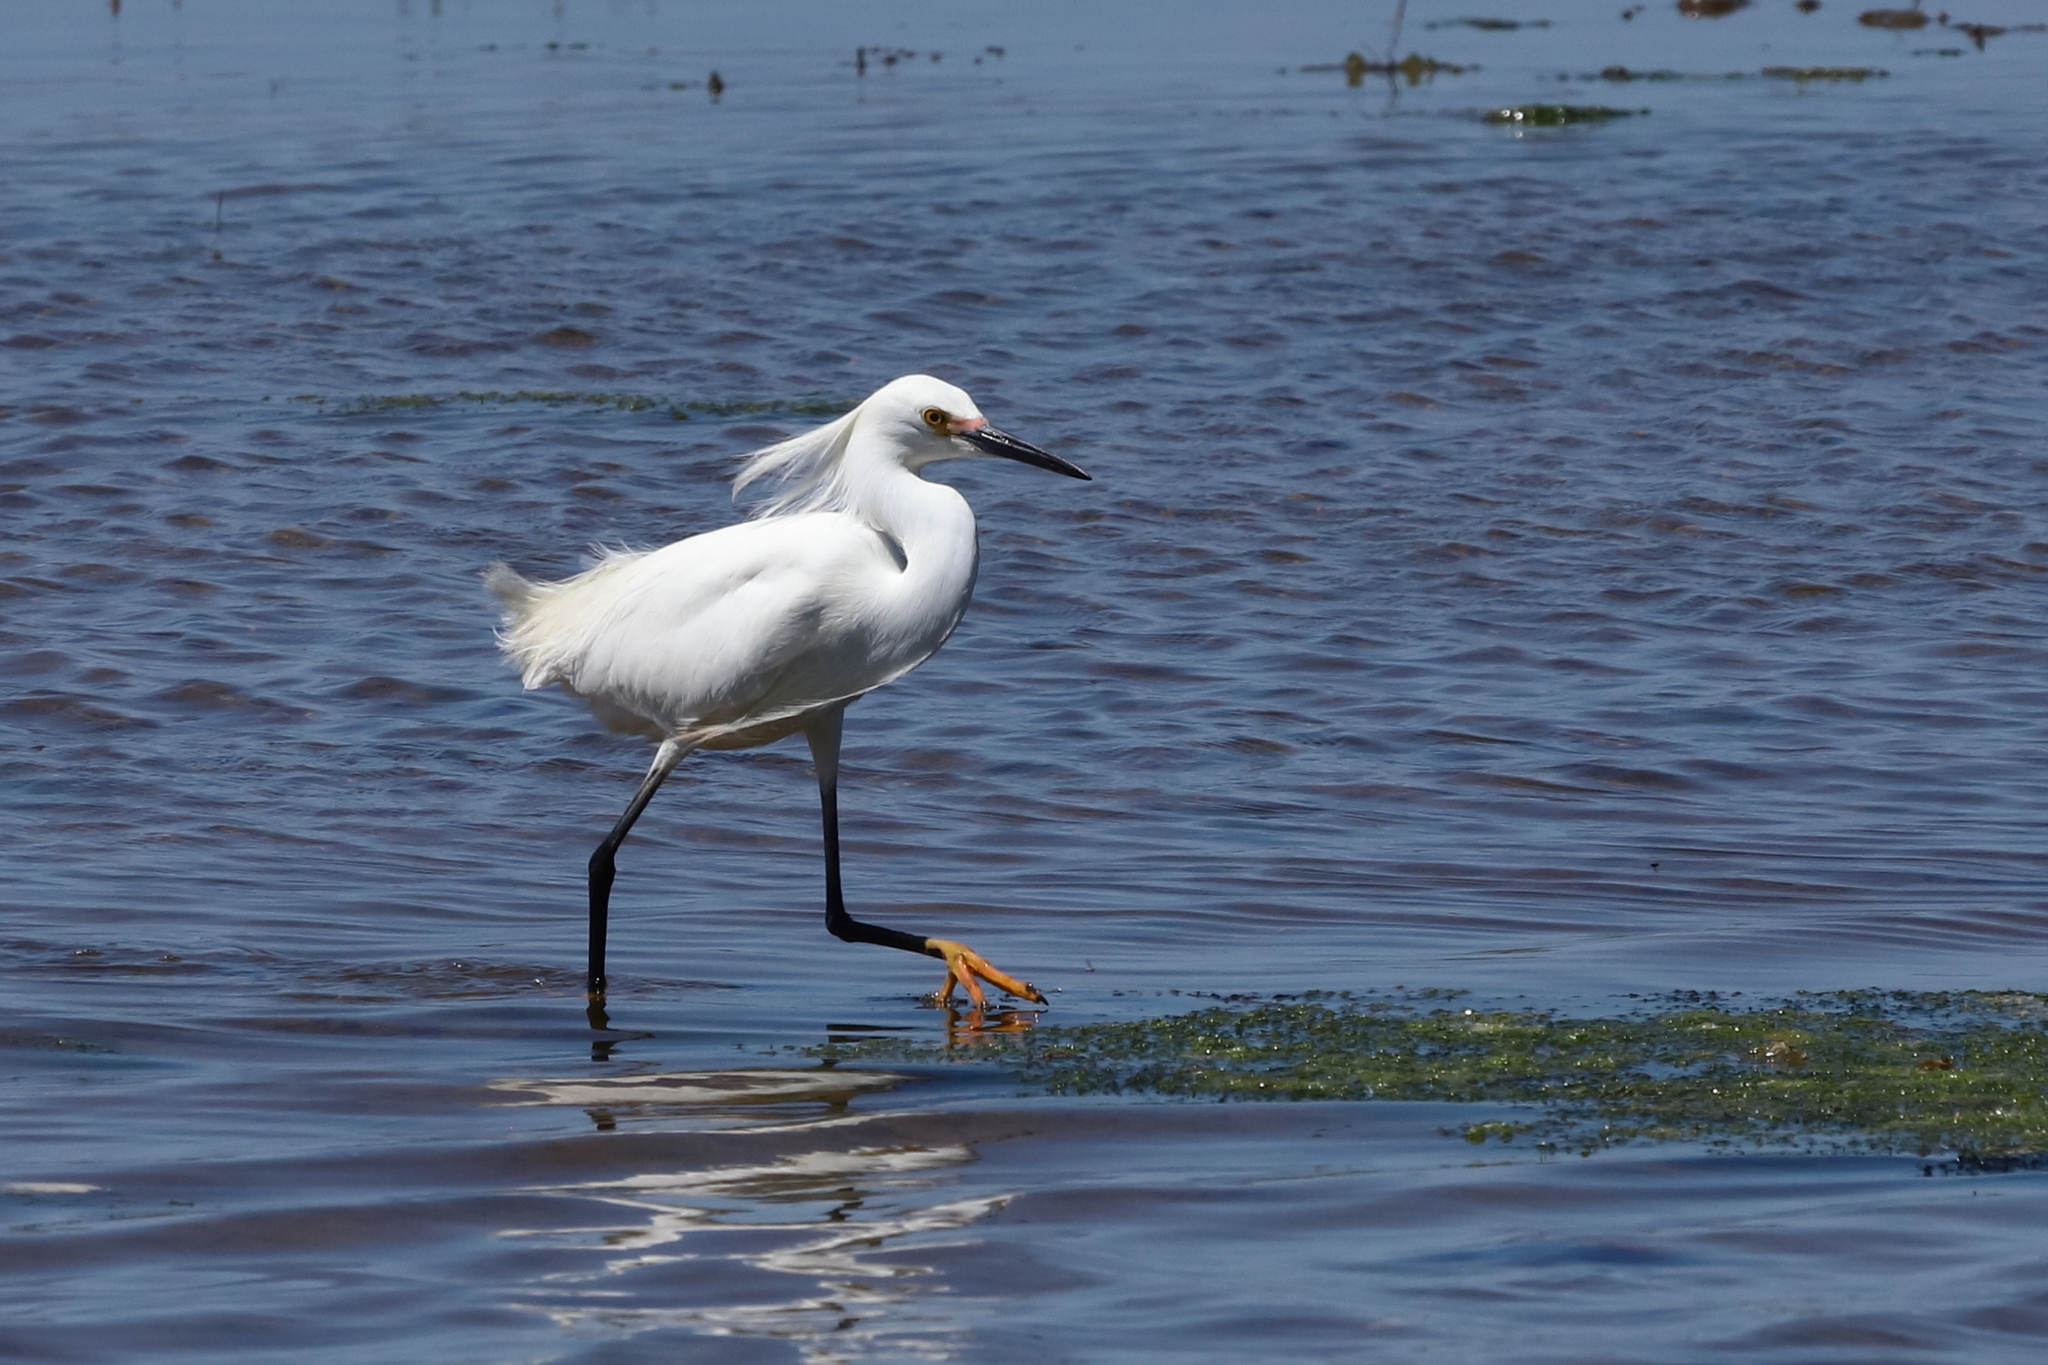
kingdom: Animalia
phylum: Chordata
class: Aves
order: Pelecaniformes
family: Ardeidae
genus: Egretta
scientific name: Egretta thula
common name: Snowy egret
